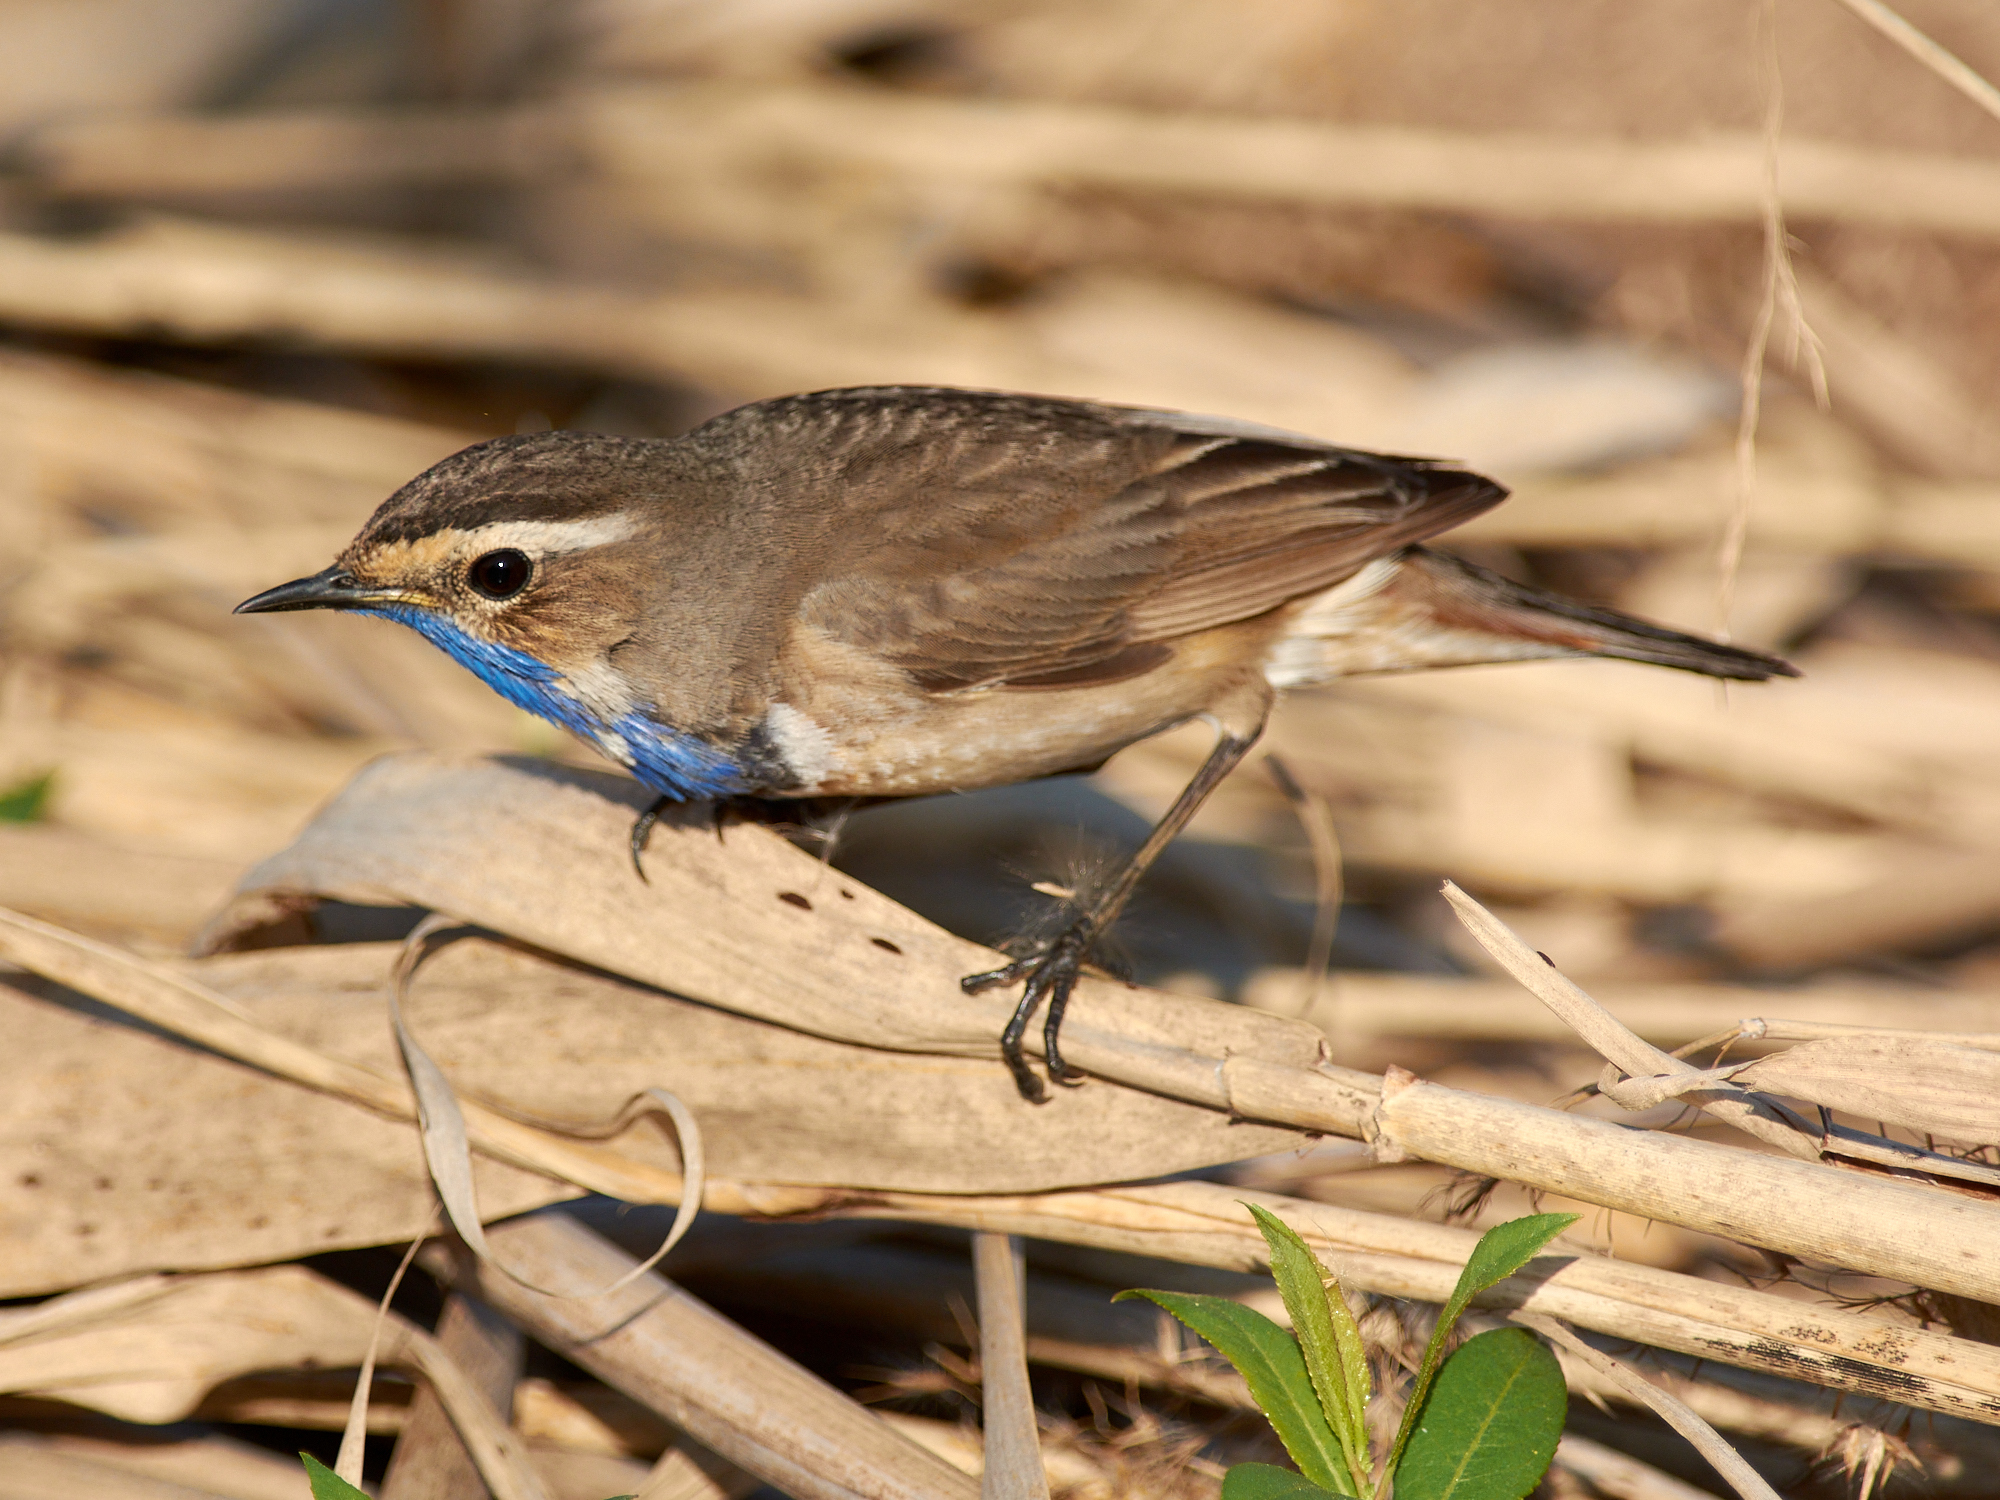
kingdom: Animalia
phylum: Chordata
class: Aves
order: Passeriformes
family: Muscicapidae
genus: Luscinia
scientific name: Luscinia svecica
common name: Bluethroat
